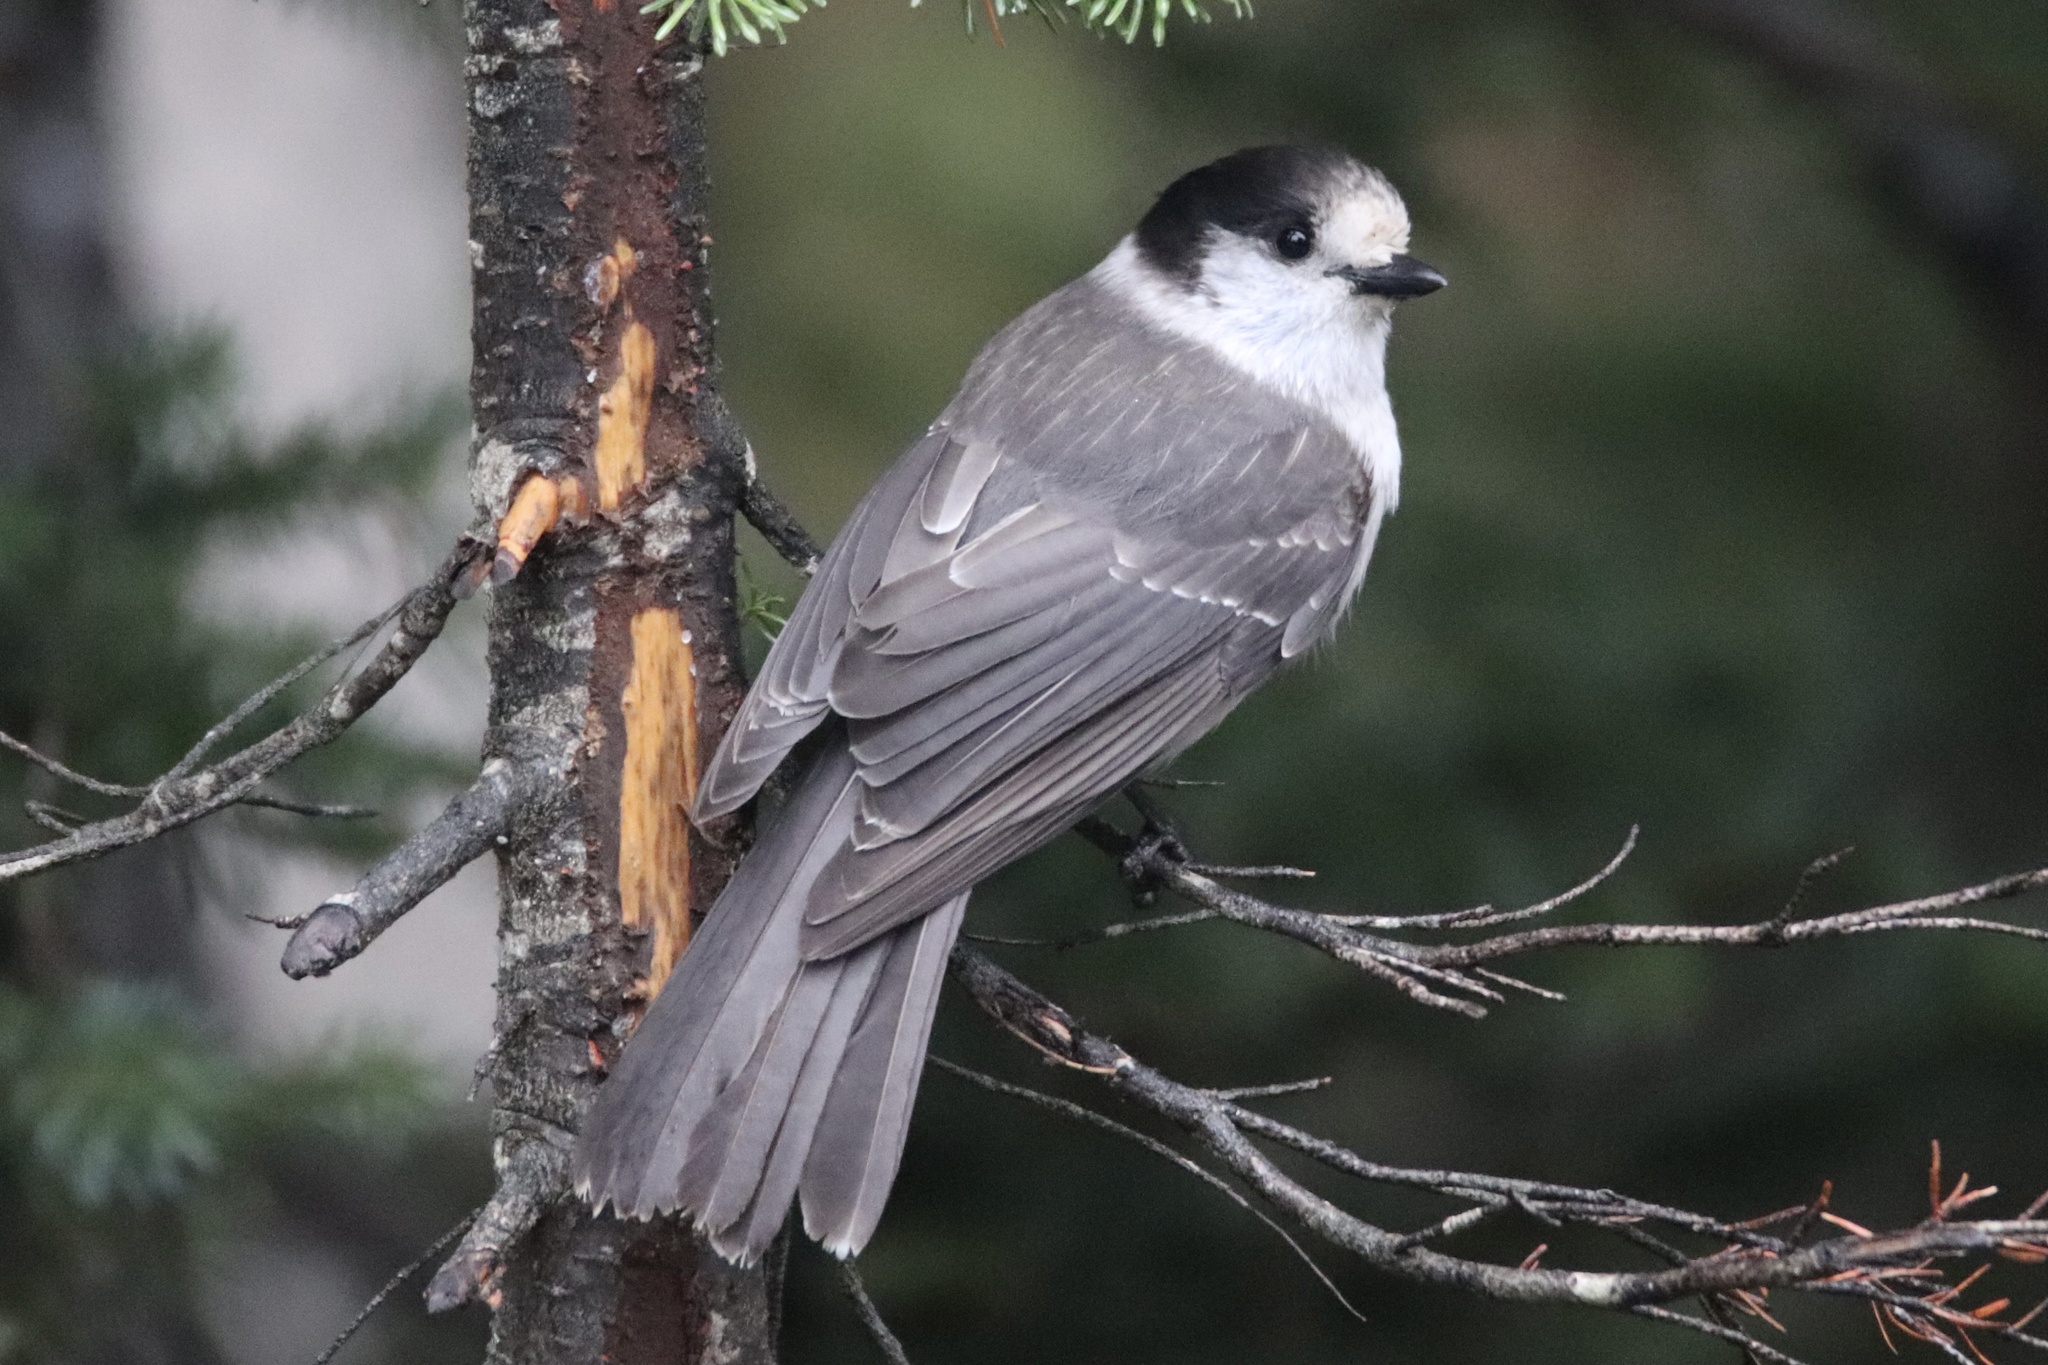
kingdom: Animalia
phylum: Chordata
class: Aves
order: Passeriformes
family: Corvidae
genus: Perisoreus
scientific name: Perisoreus canadensis
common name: Gray jay
